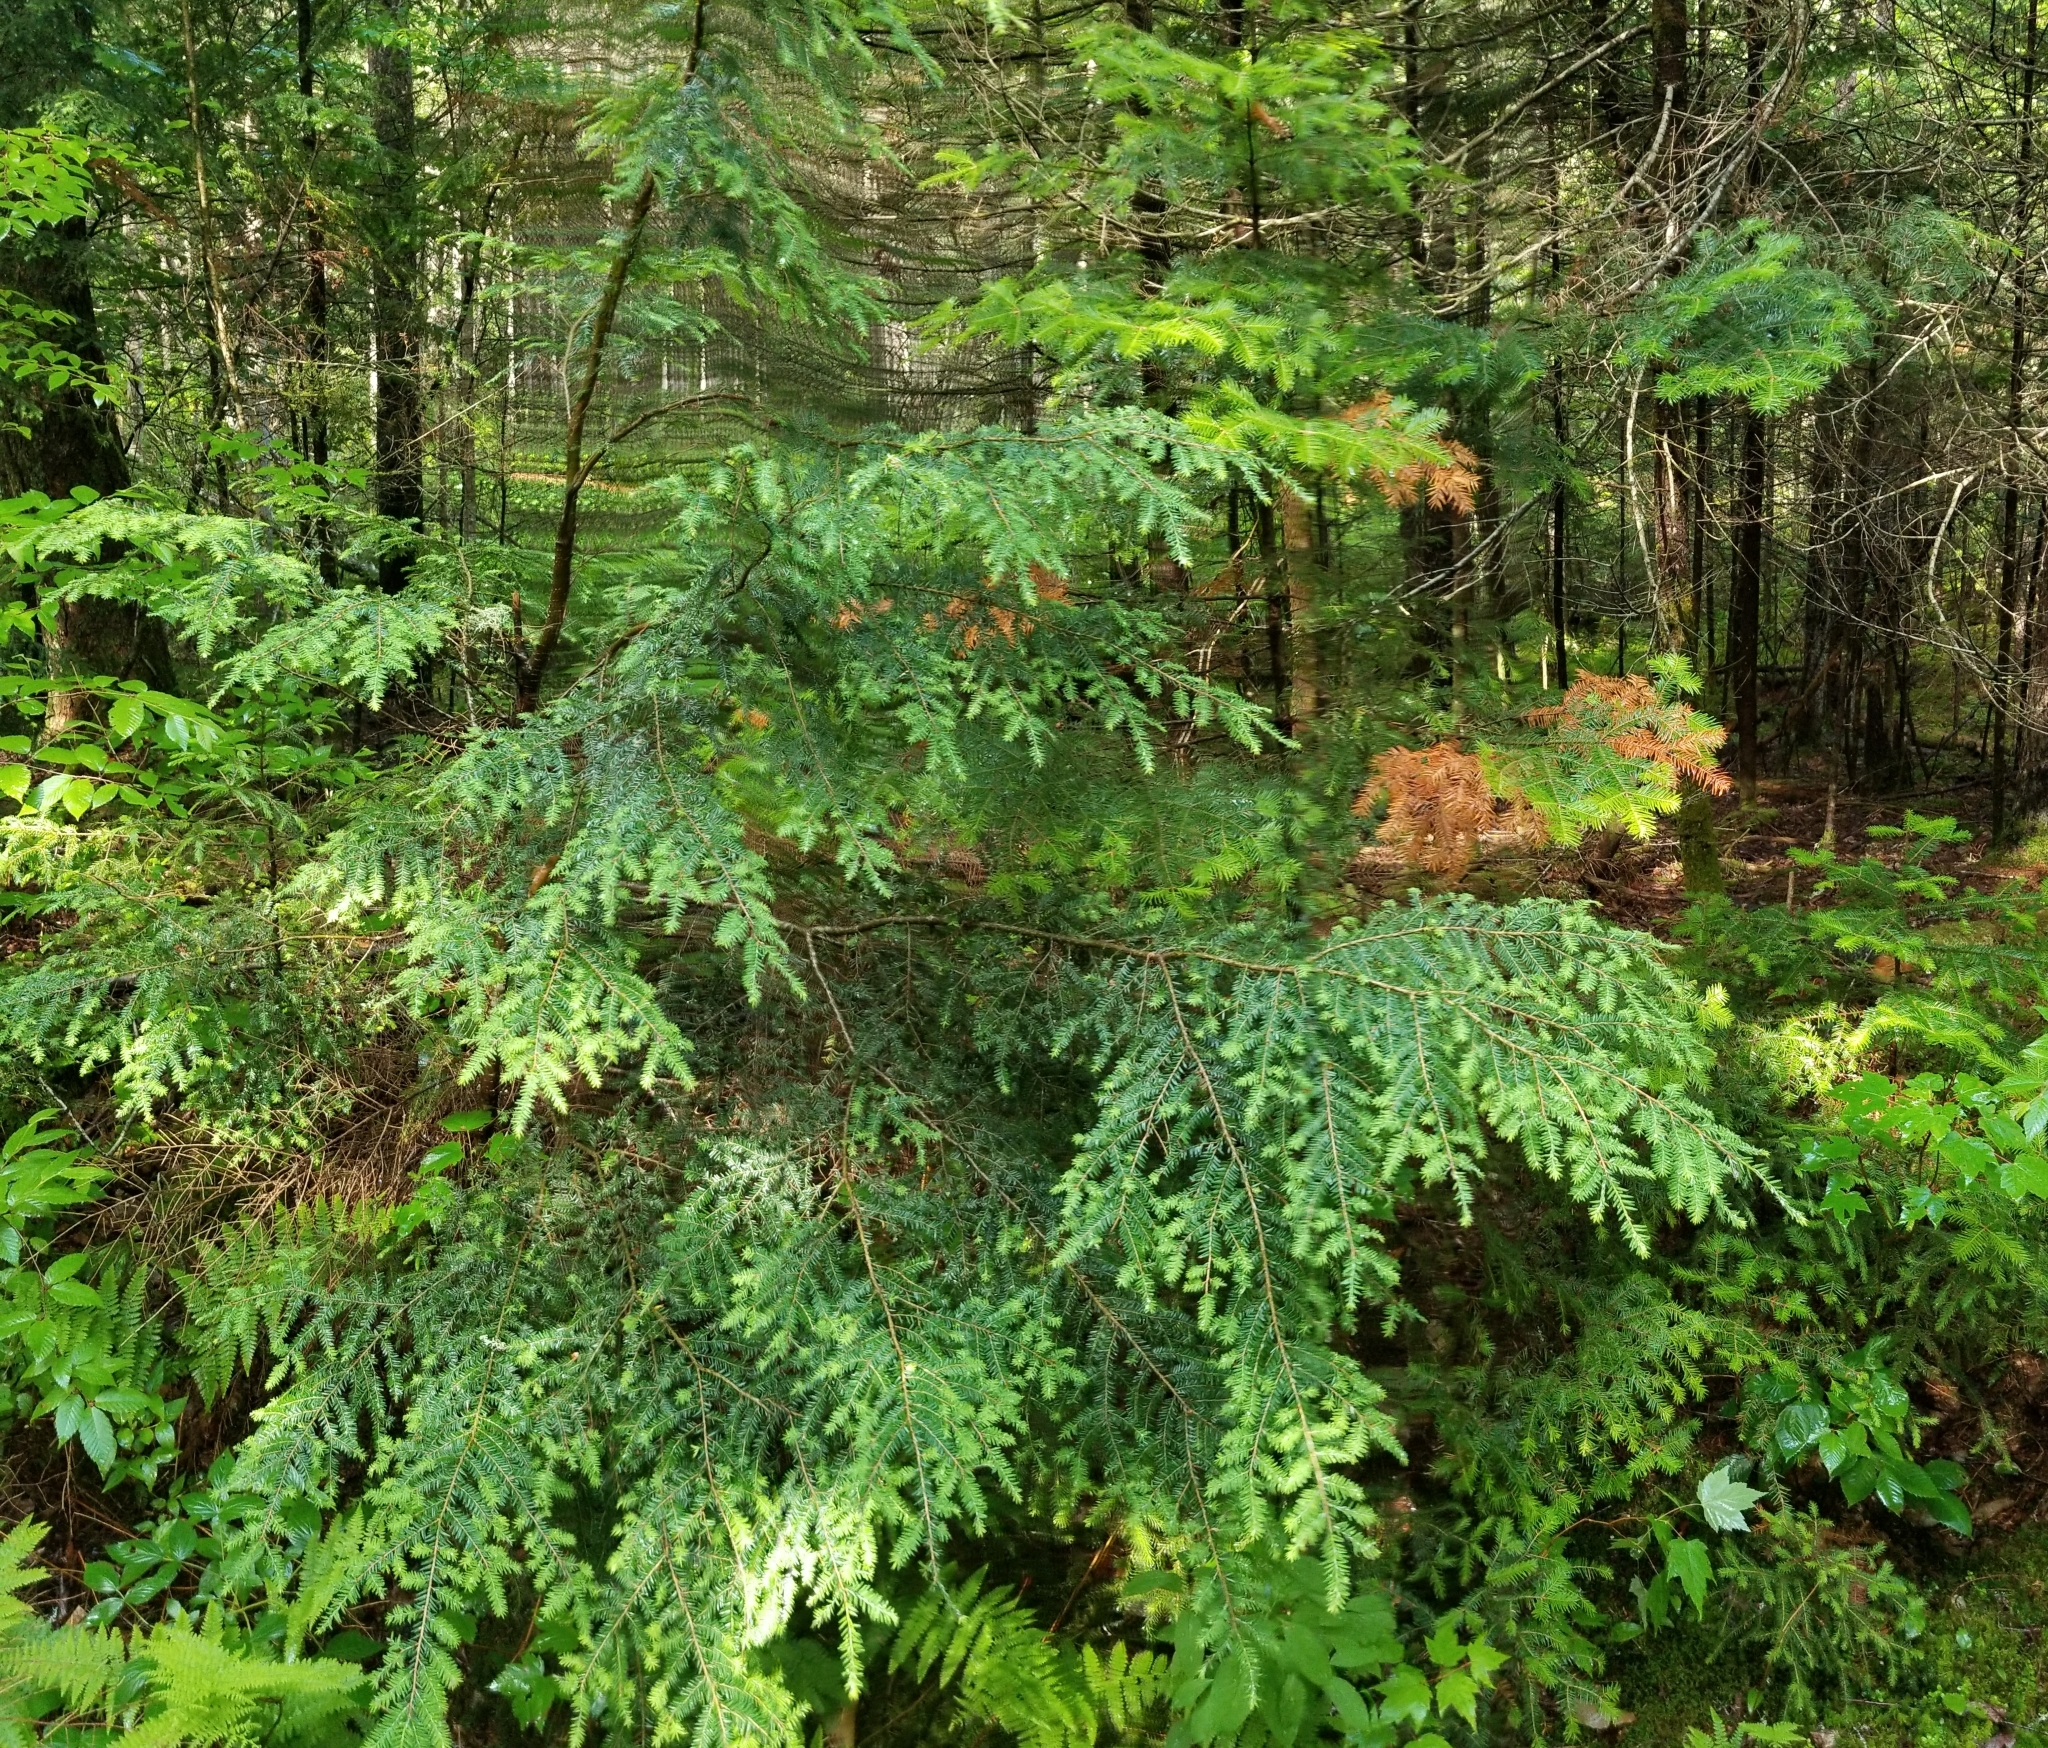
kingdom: Plantae
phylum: Tracheophyta
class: Pinopsida
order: Pinales
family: Pinaceae
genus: Tsuga
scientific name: Tsuga canadensis
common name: Eastern hemlock
